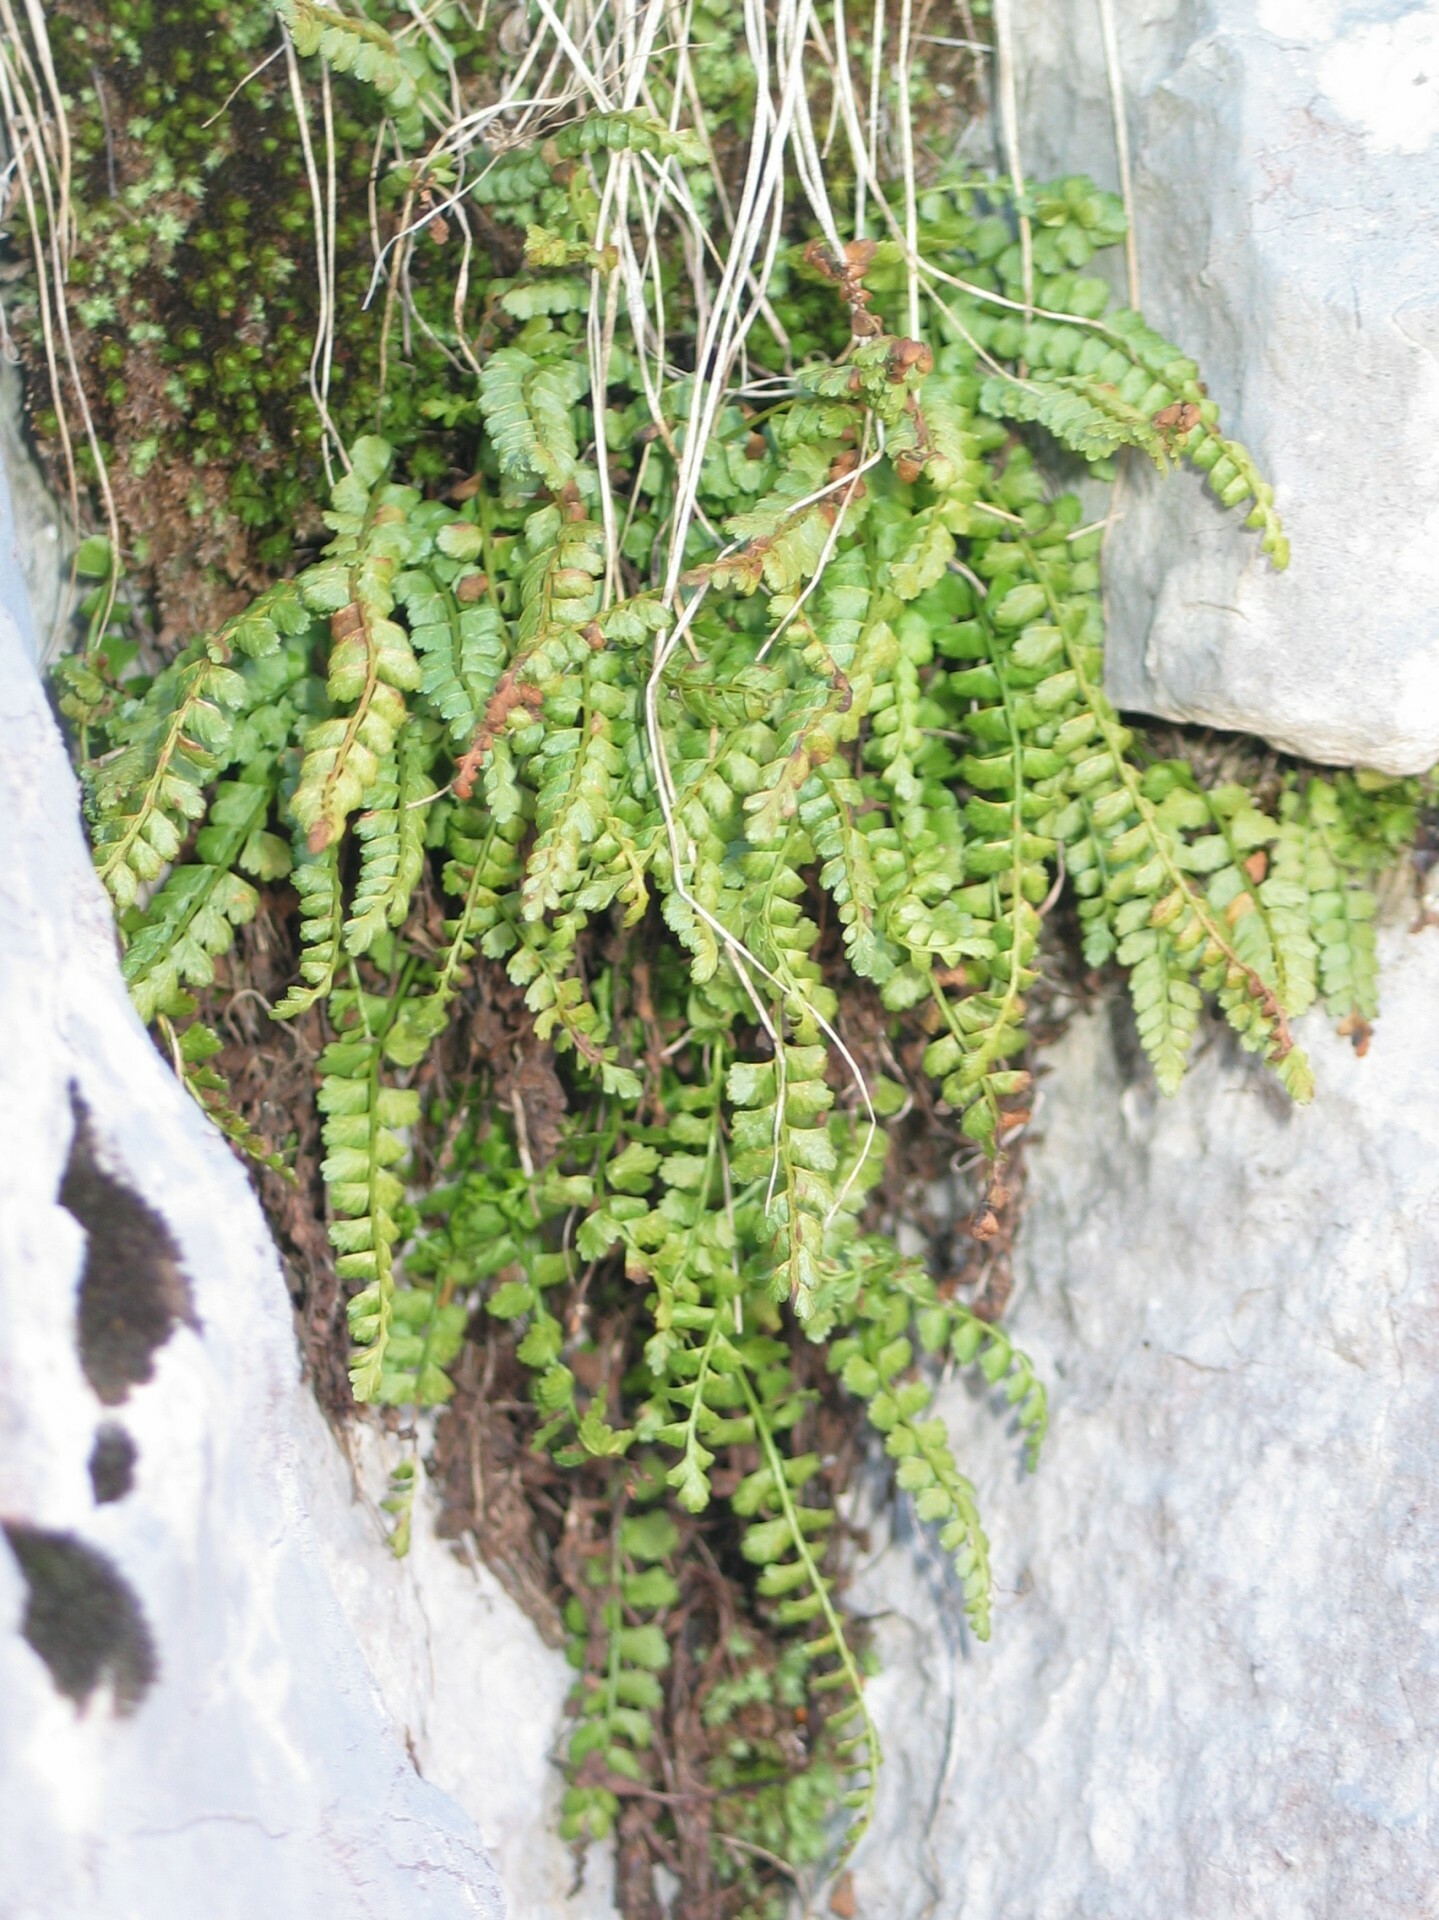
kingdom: Plantae
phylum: Tracheophyta
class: Polypodiopsida
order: Polypodiales
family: Aspleniaceae
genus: Asplenium
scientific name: Asplenium viride
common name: Green spleenwort
